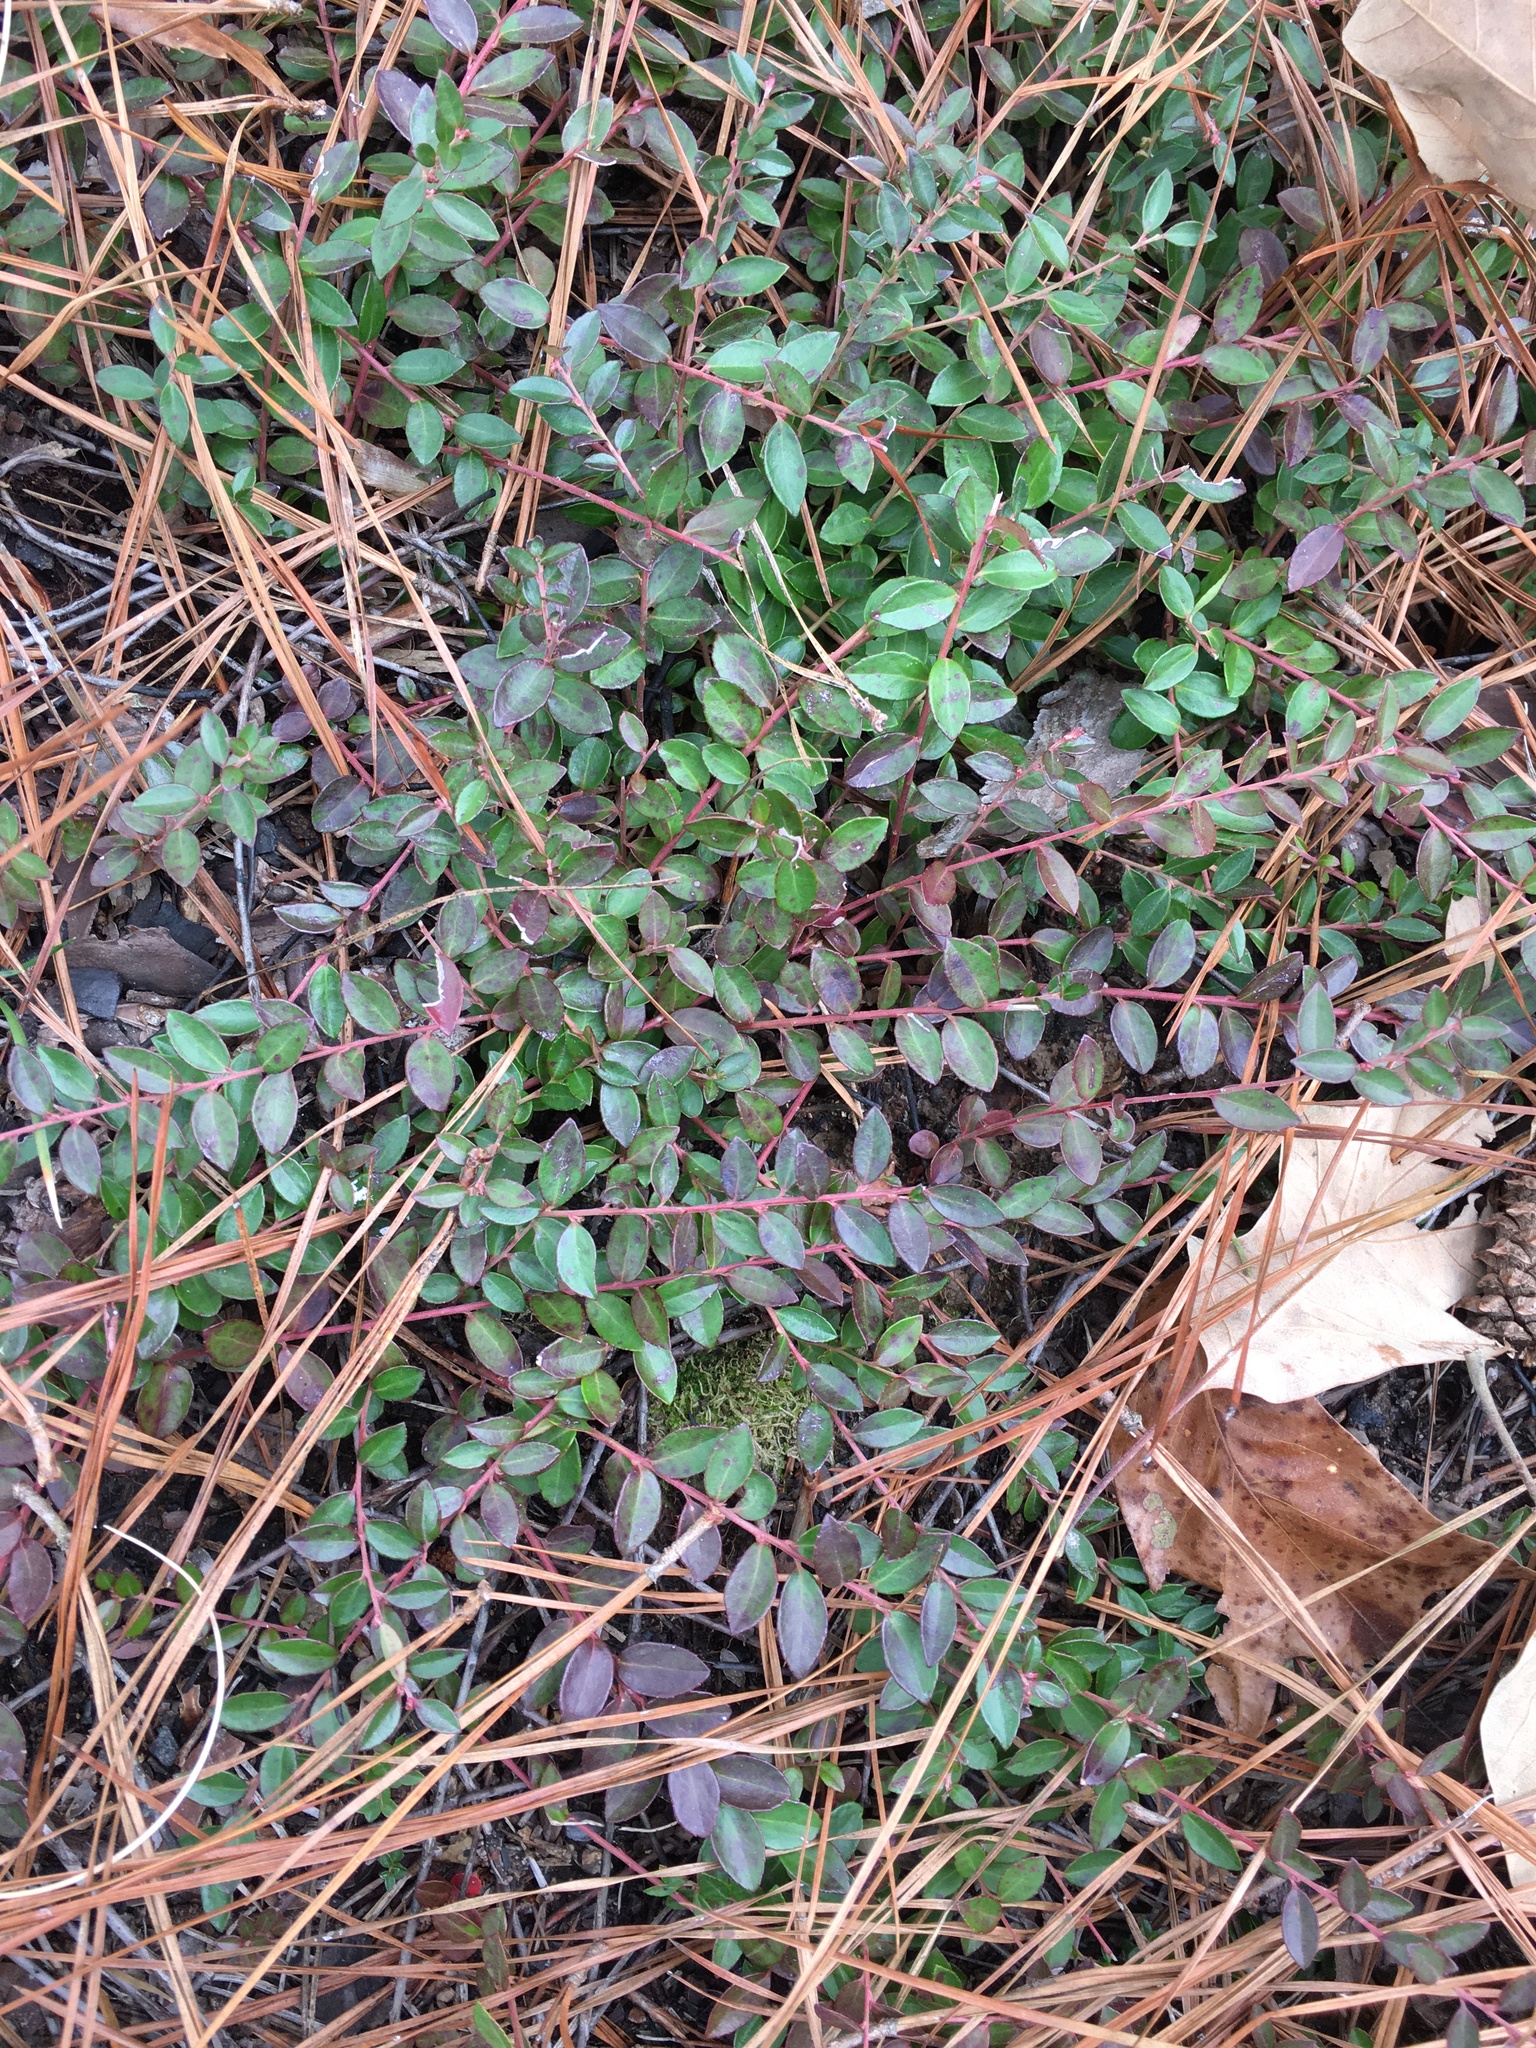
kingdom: Plantae
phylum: Tracheophyta
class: Magnoliopsida
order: Ericales
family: Ericaceae
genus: Vaccinium
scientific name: Vaccinium crassifolium
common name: Creeping blueberry
